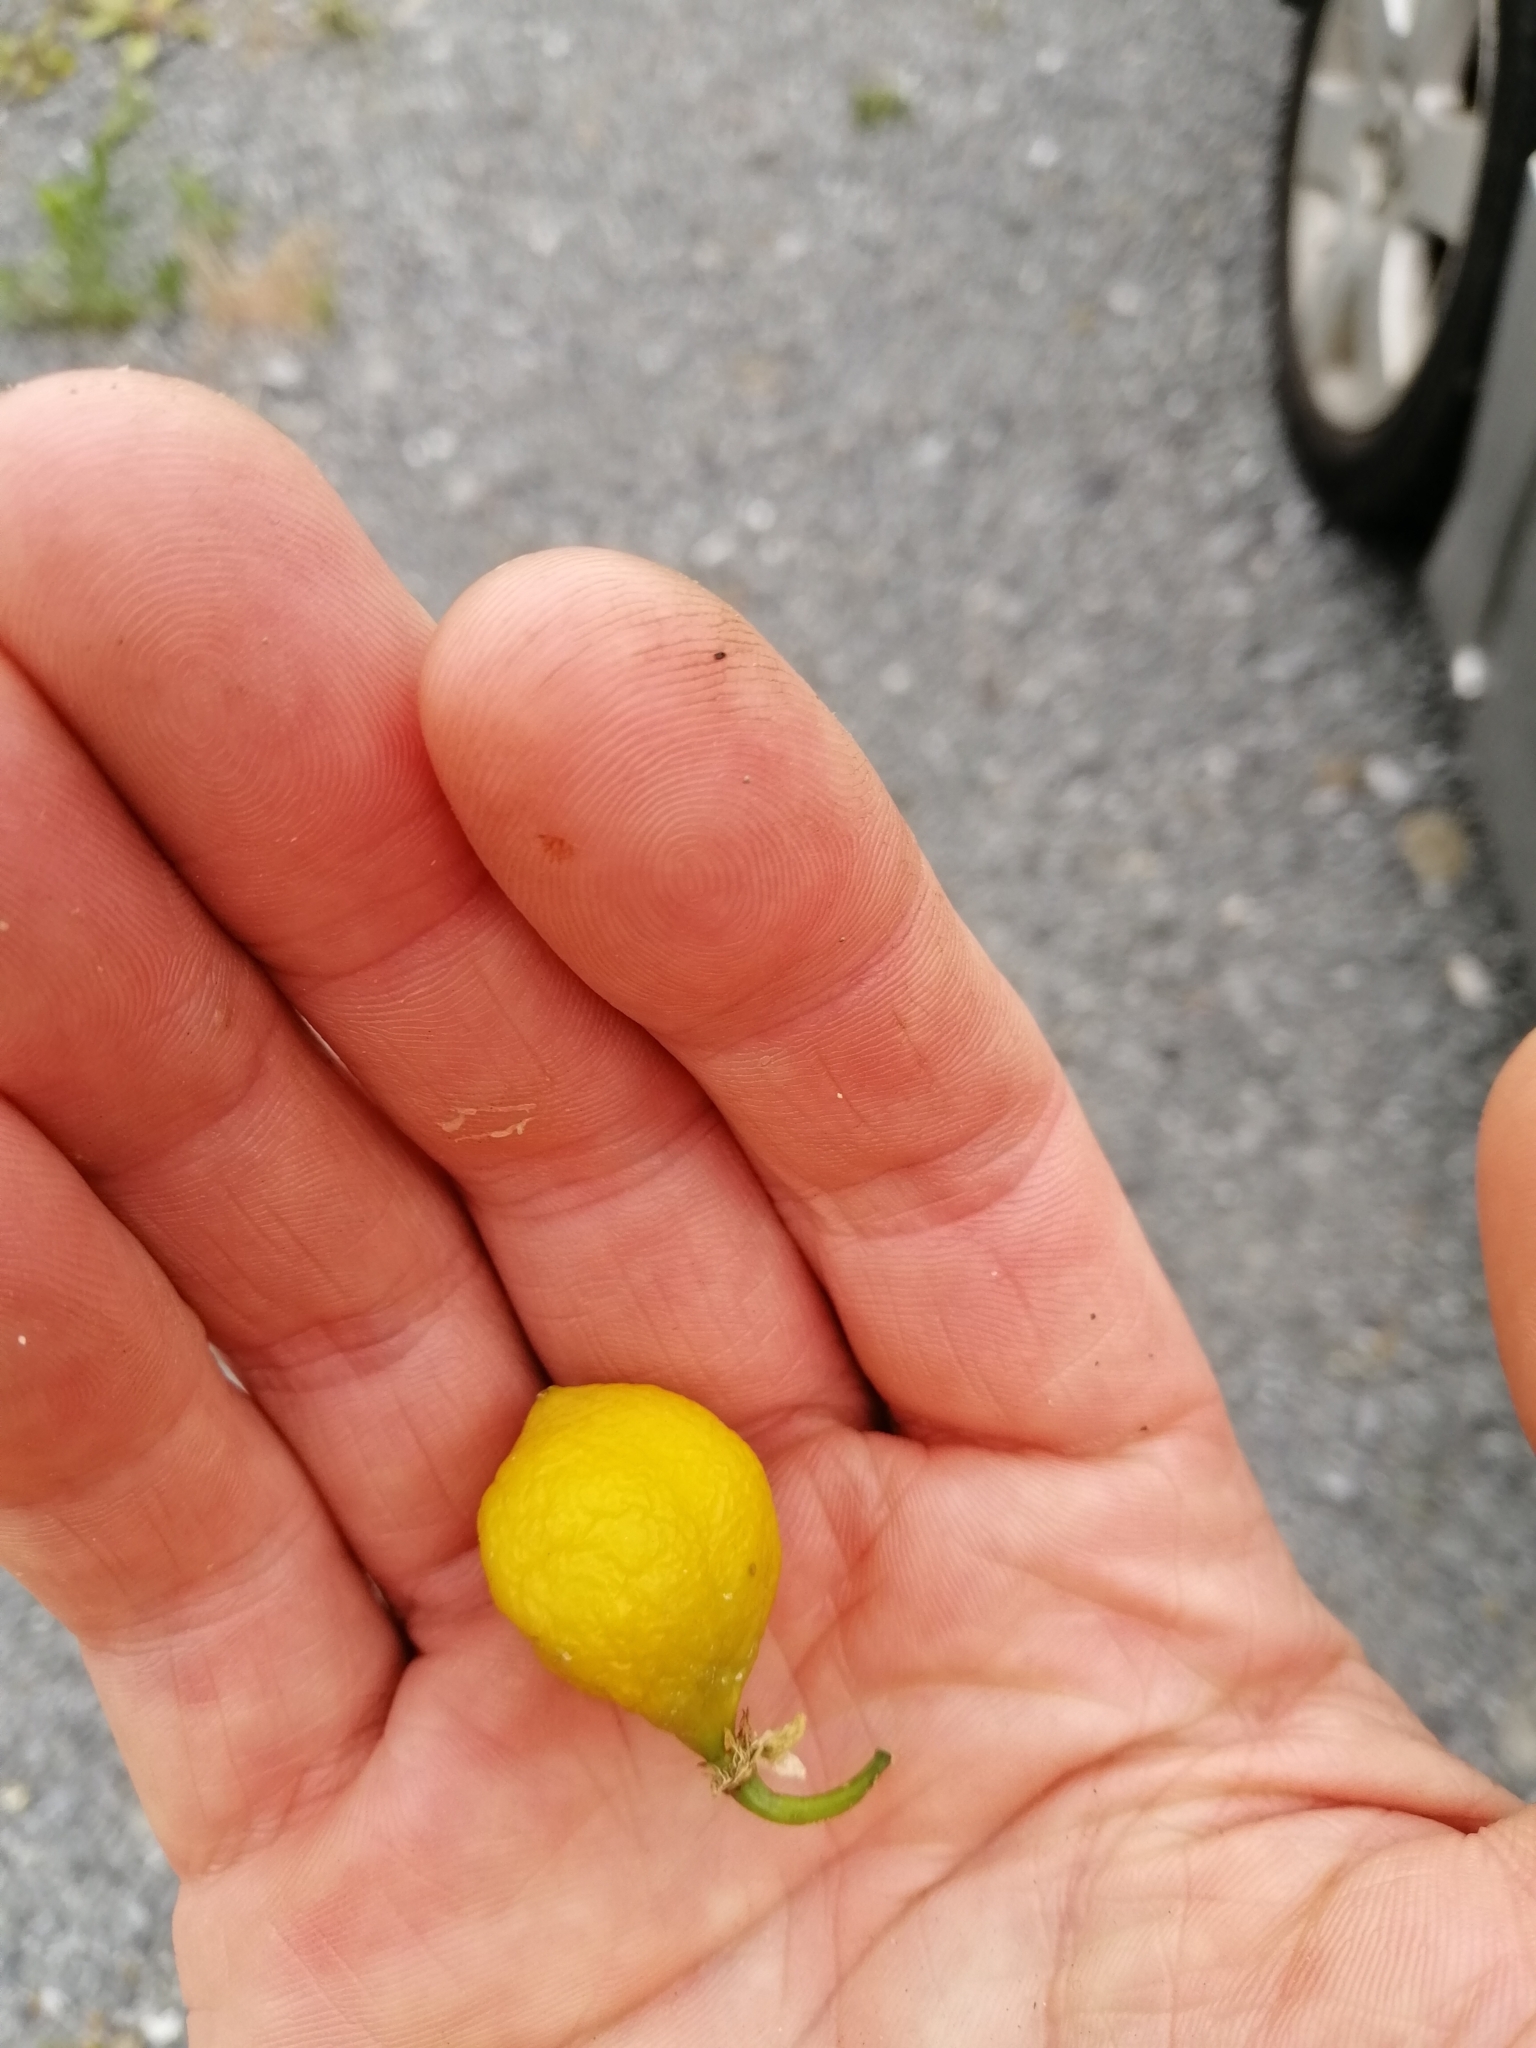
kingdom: Plantae
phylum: Tracheophyta
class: Magnoliopsida
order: Malpighiales
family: Passifloraceae
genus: Passiflora
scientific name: Passiflora tetrandra
